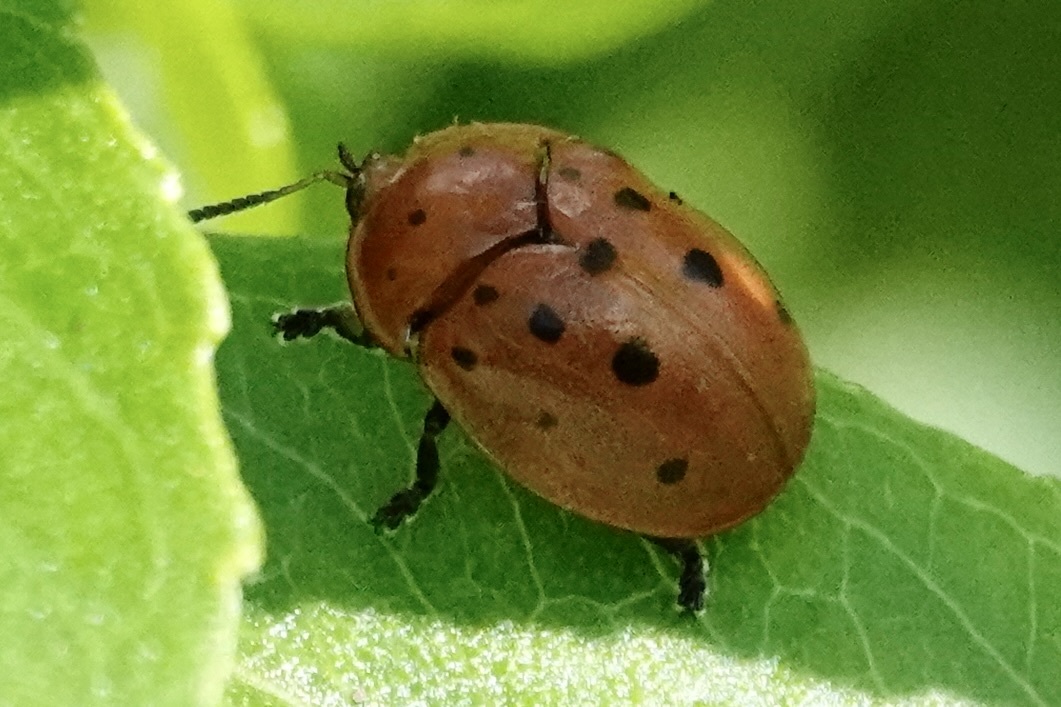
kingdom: Animalia
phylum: Arthropoda
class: Insecta
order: Coleoptera
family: Chrysomelidae
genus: Chelymorpha
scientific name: Chelymorpha cassidea
